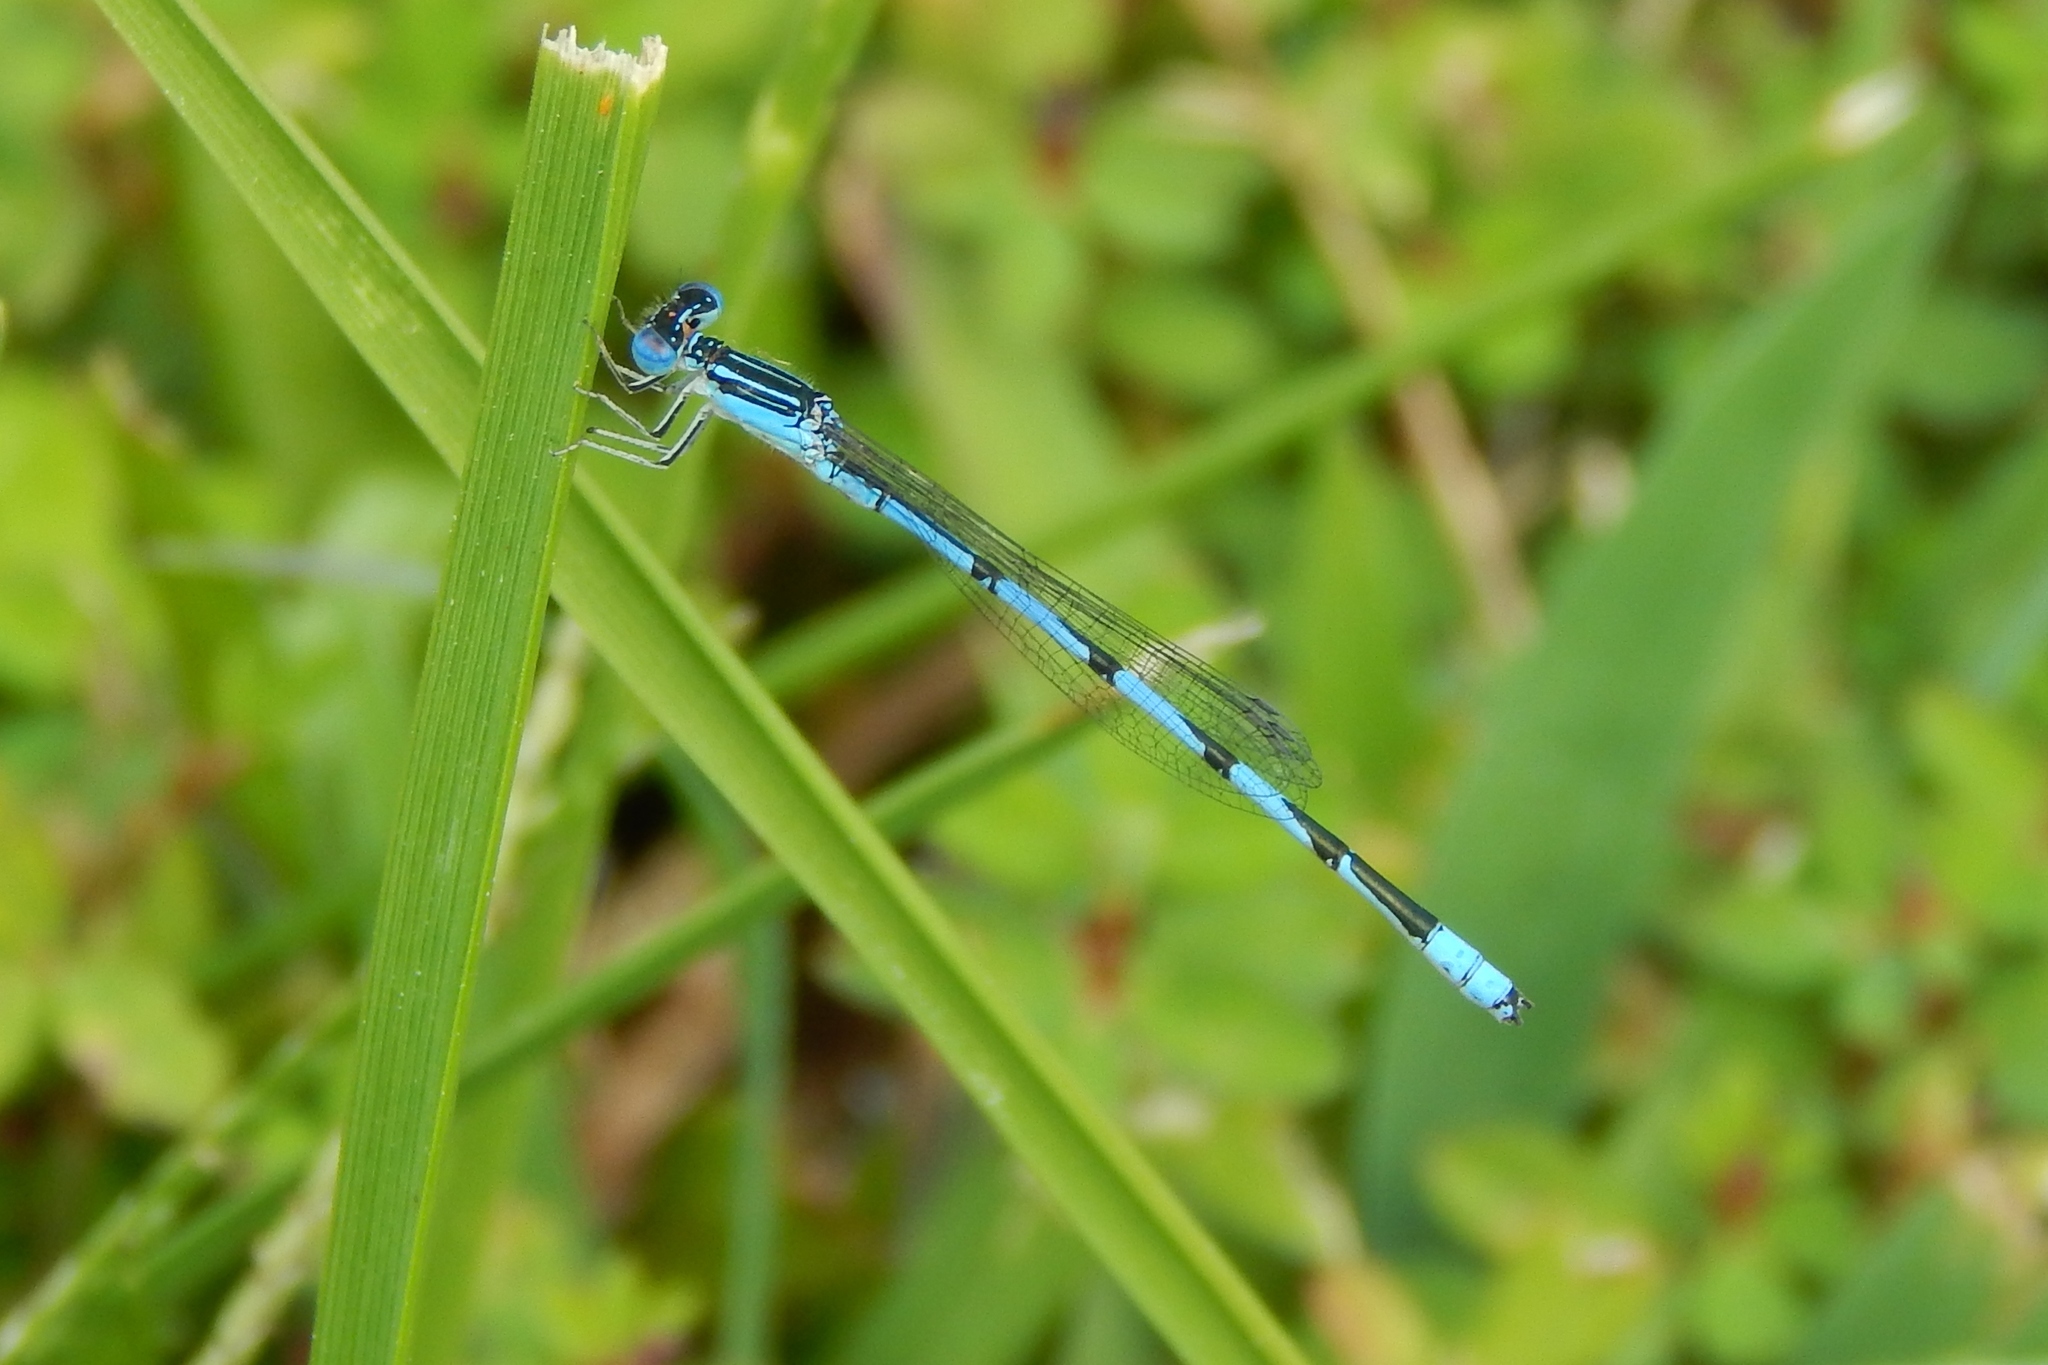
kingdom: Animalia
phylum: Arthropoda
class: Insecta
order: Odonata
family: Coenagrionidae
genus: Enallagma
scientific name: Enallagma basidens
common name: Double-striped bluet
